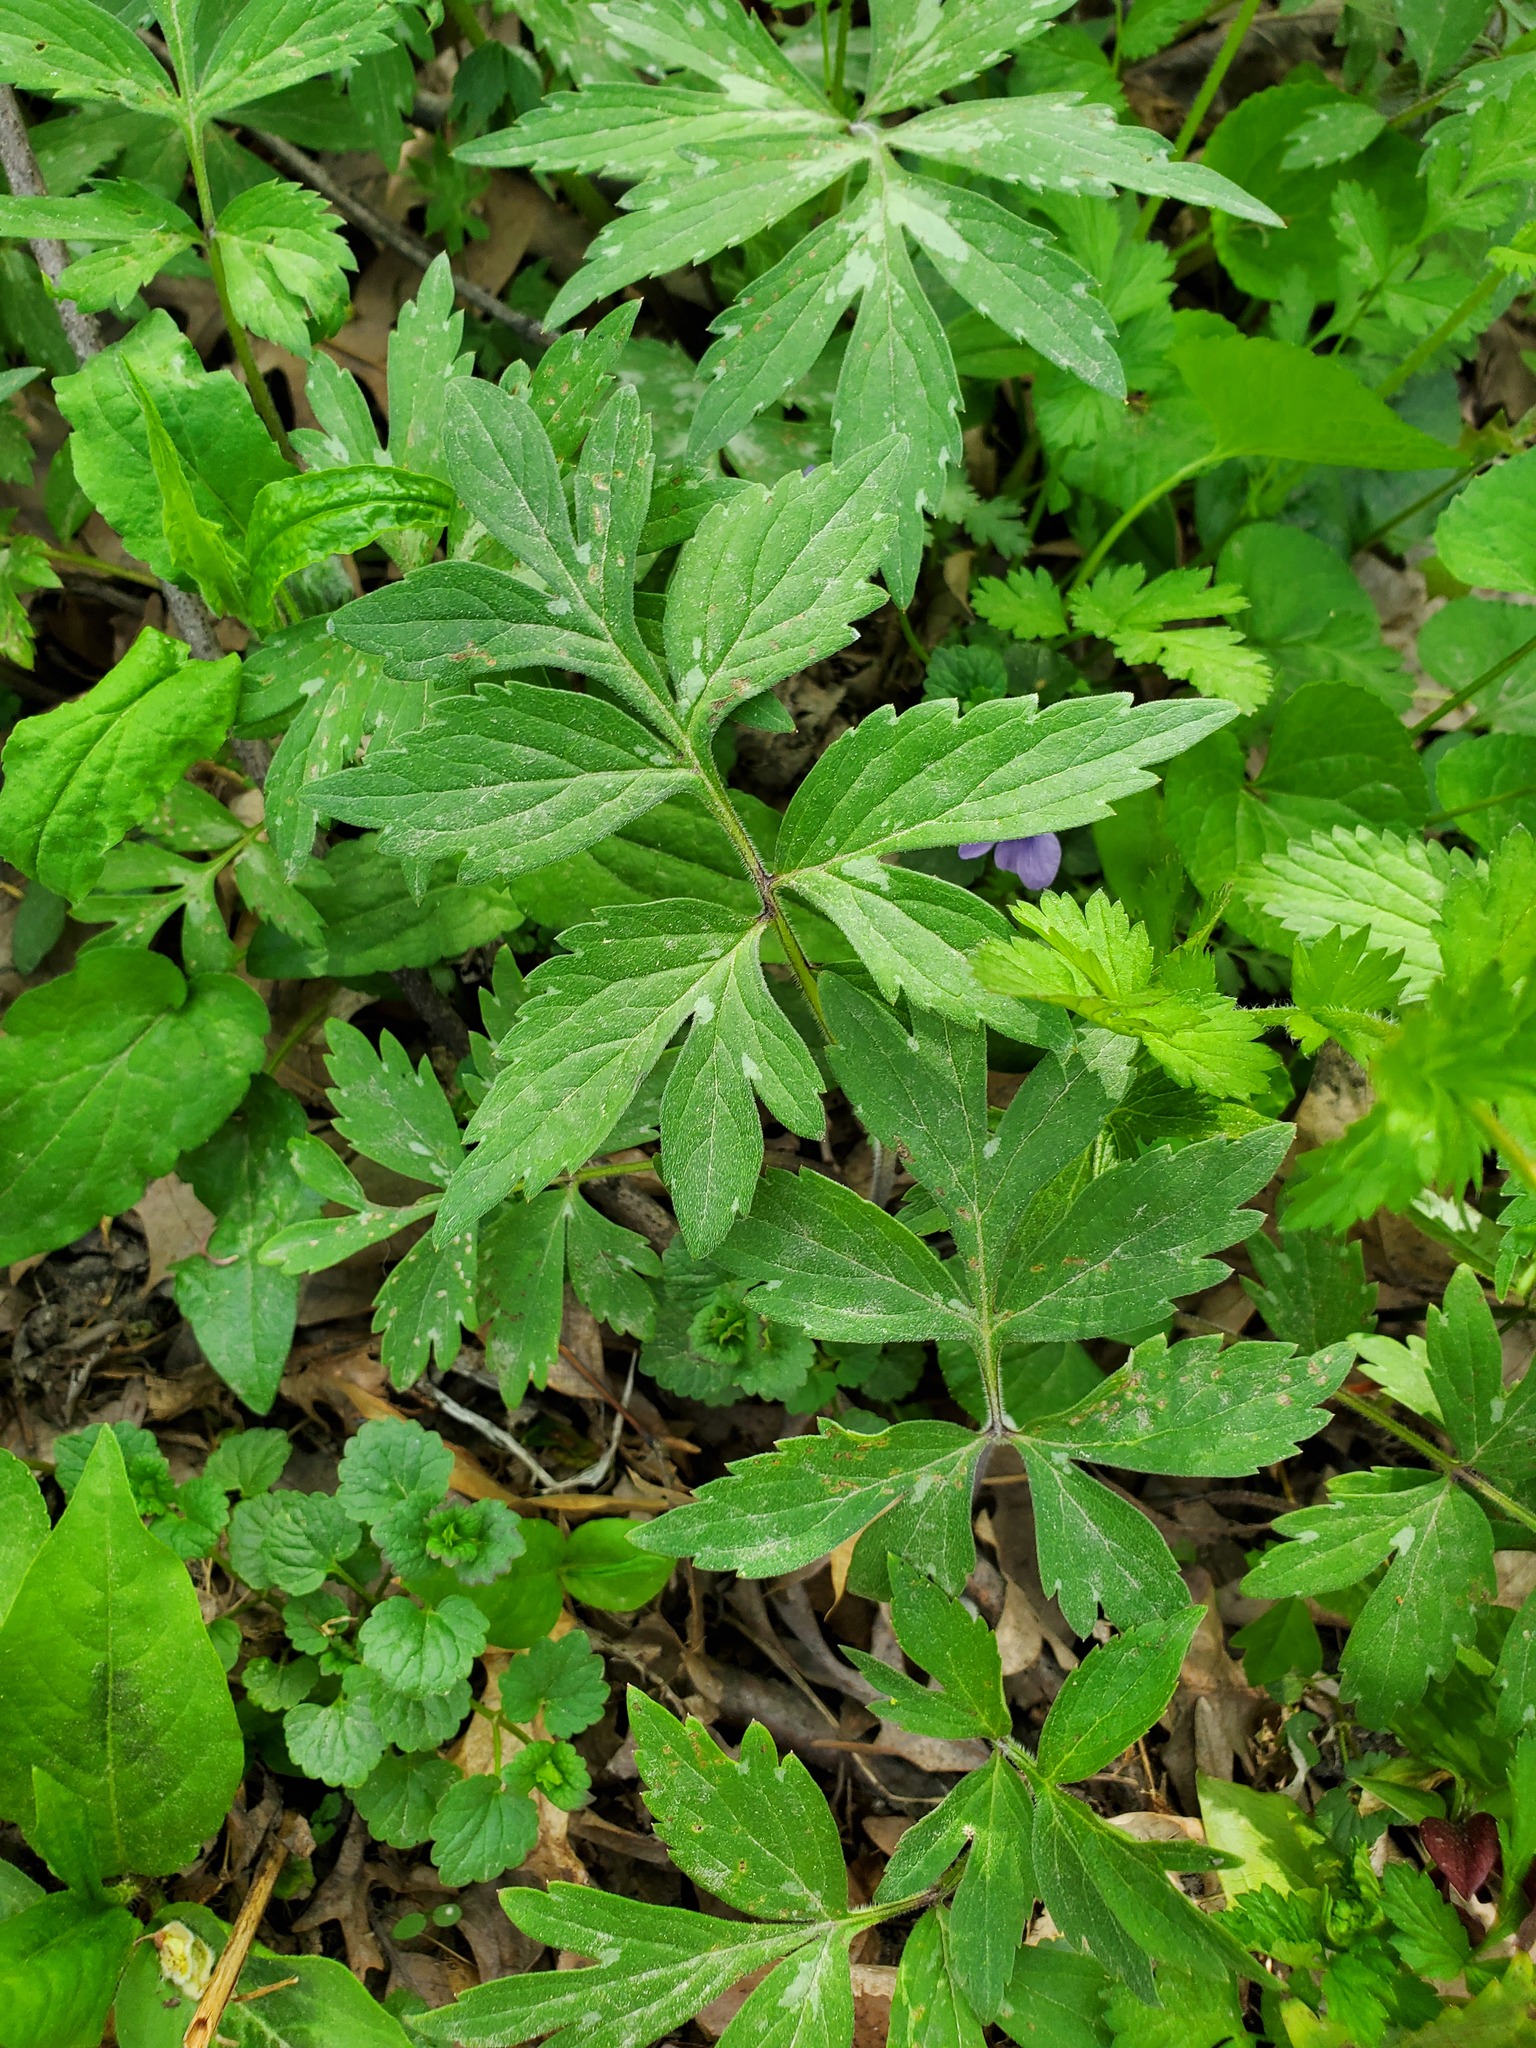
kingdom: Plantae
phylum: Tracheophyta
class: Magnoliopsida
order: Boraginales
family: Hydrophyllaceae
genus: Hydrophyllum
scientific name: Hydrophyllum virginianum
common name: Virginia waterleaf
